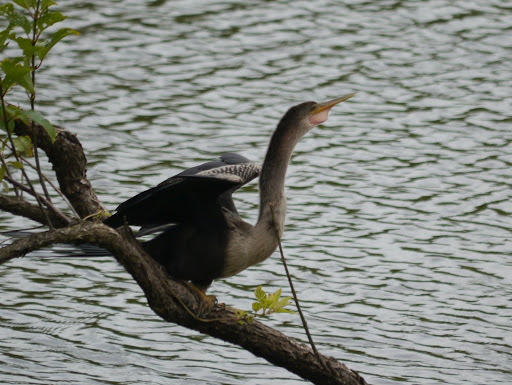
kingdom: Animalia
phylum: Chordata
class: Aves
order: Suliformes
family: Anhingidae
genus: Anhinga
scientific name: Anhinga anhinga
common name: Anhinga
